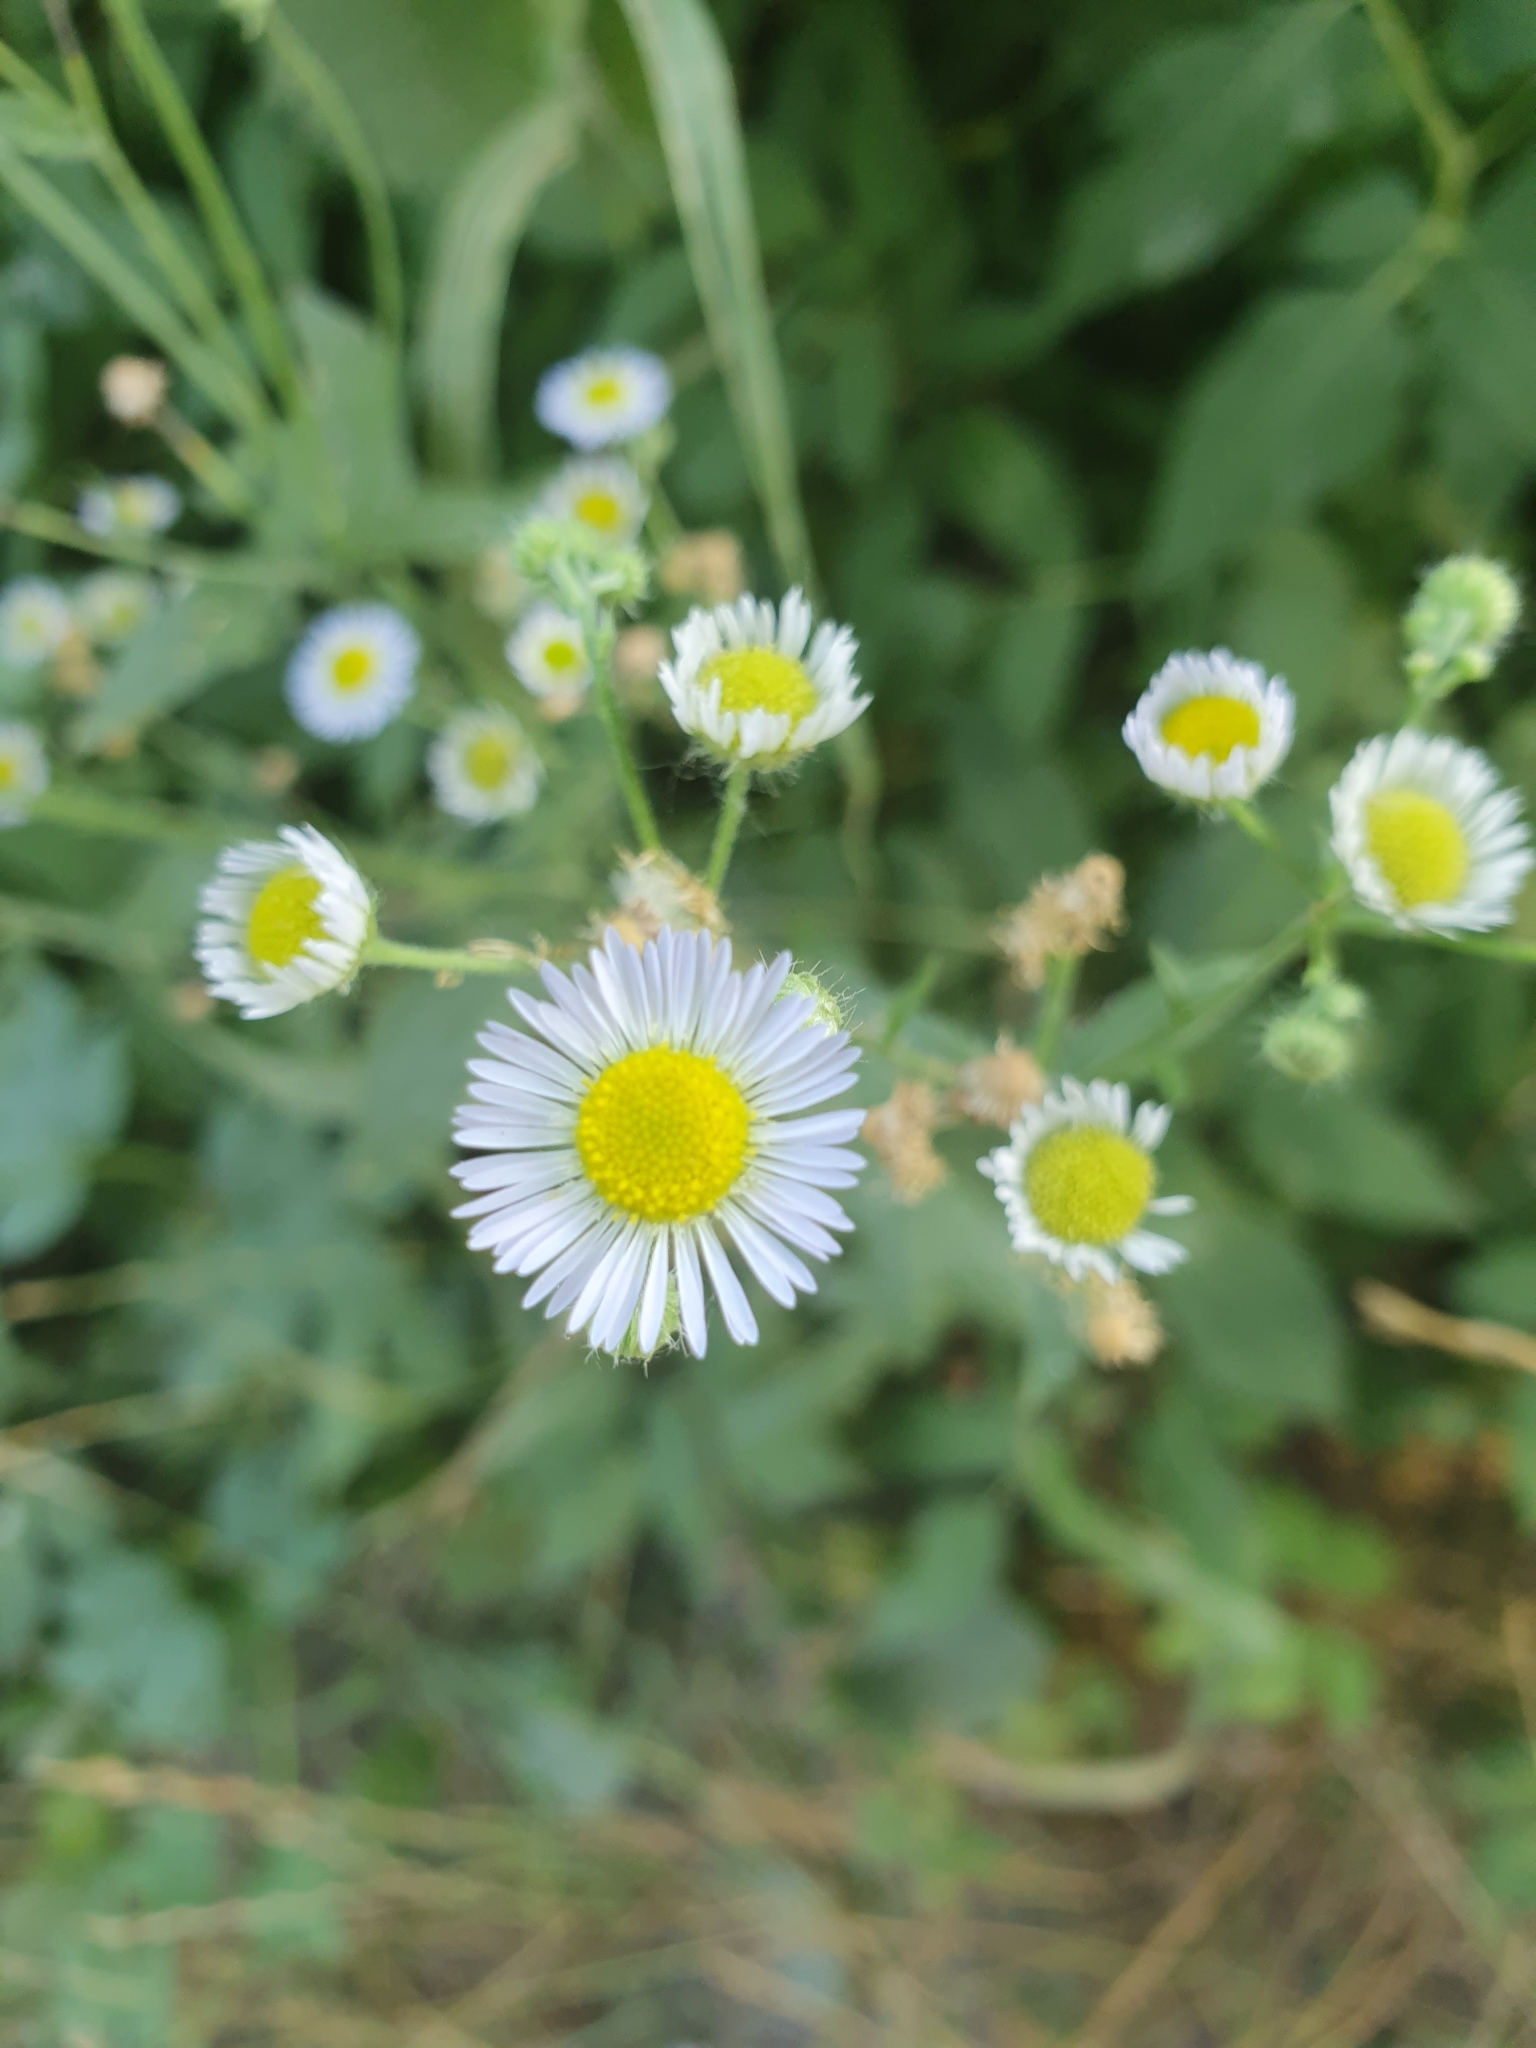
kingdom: Plantae
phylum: Tracheophyta
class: Magnoliopsida
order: Asterales
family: Asteraceae
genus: Erigeron
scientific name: Erigeron annuus
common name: Tall fleabane
